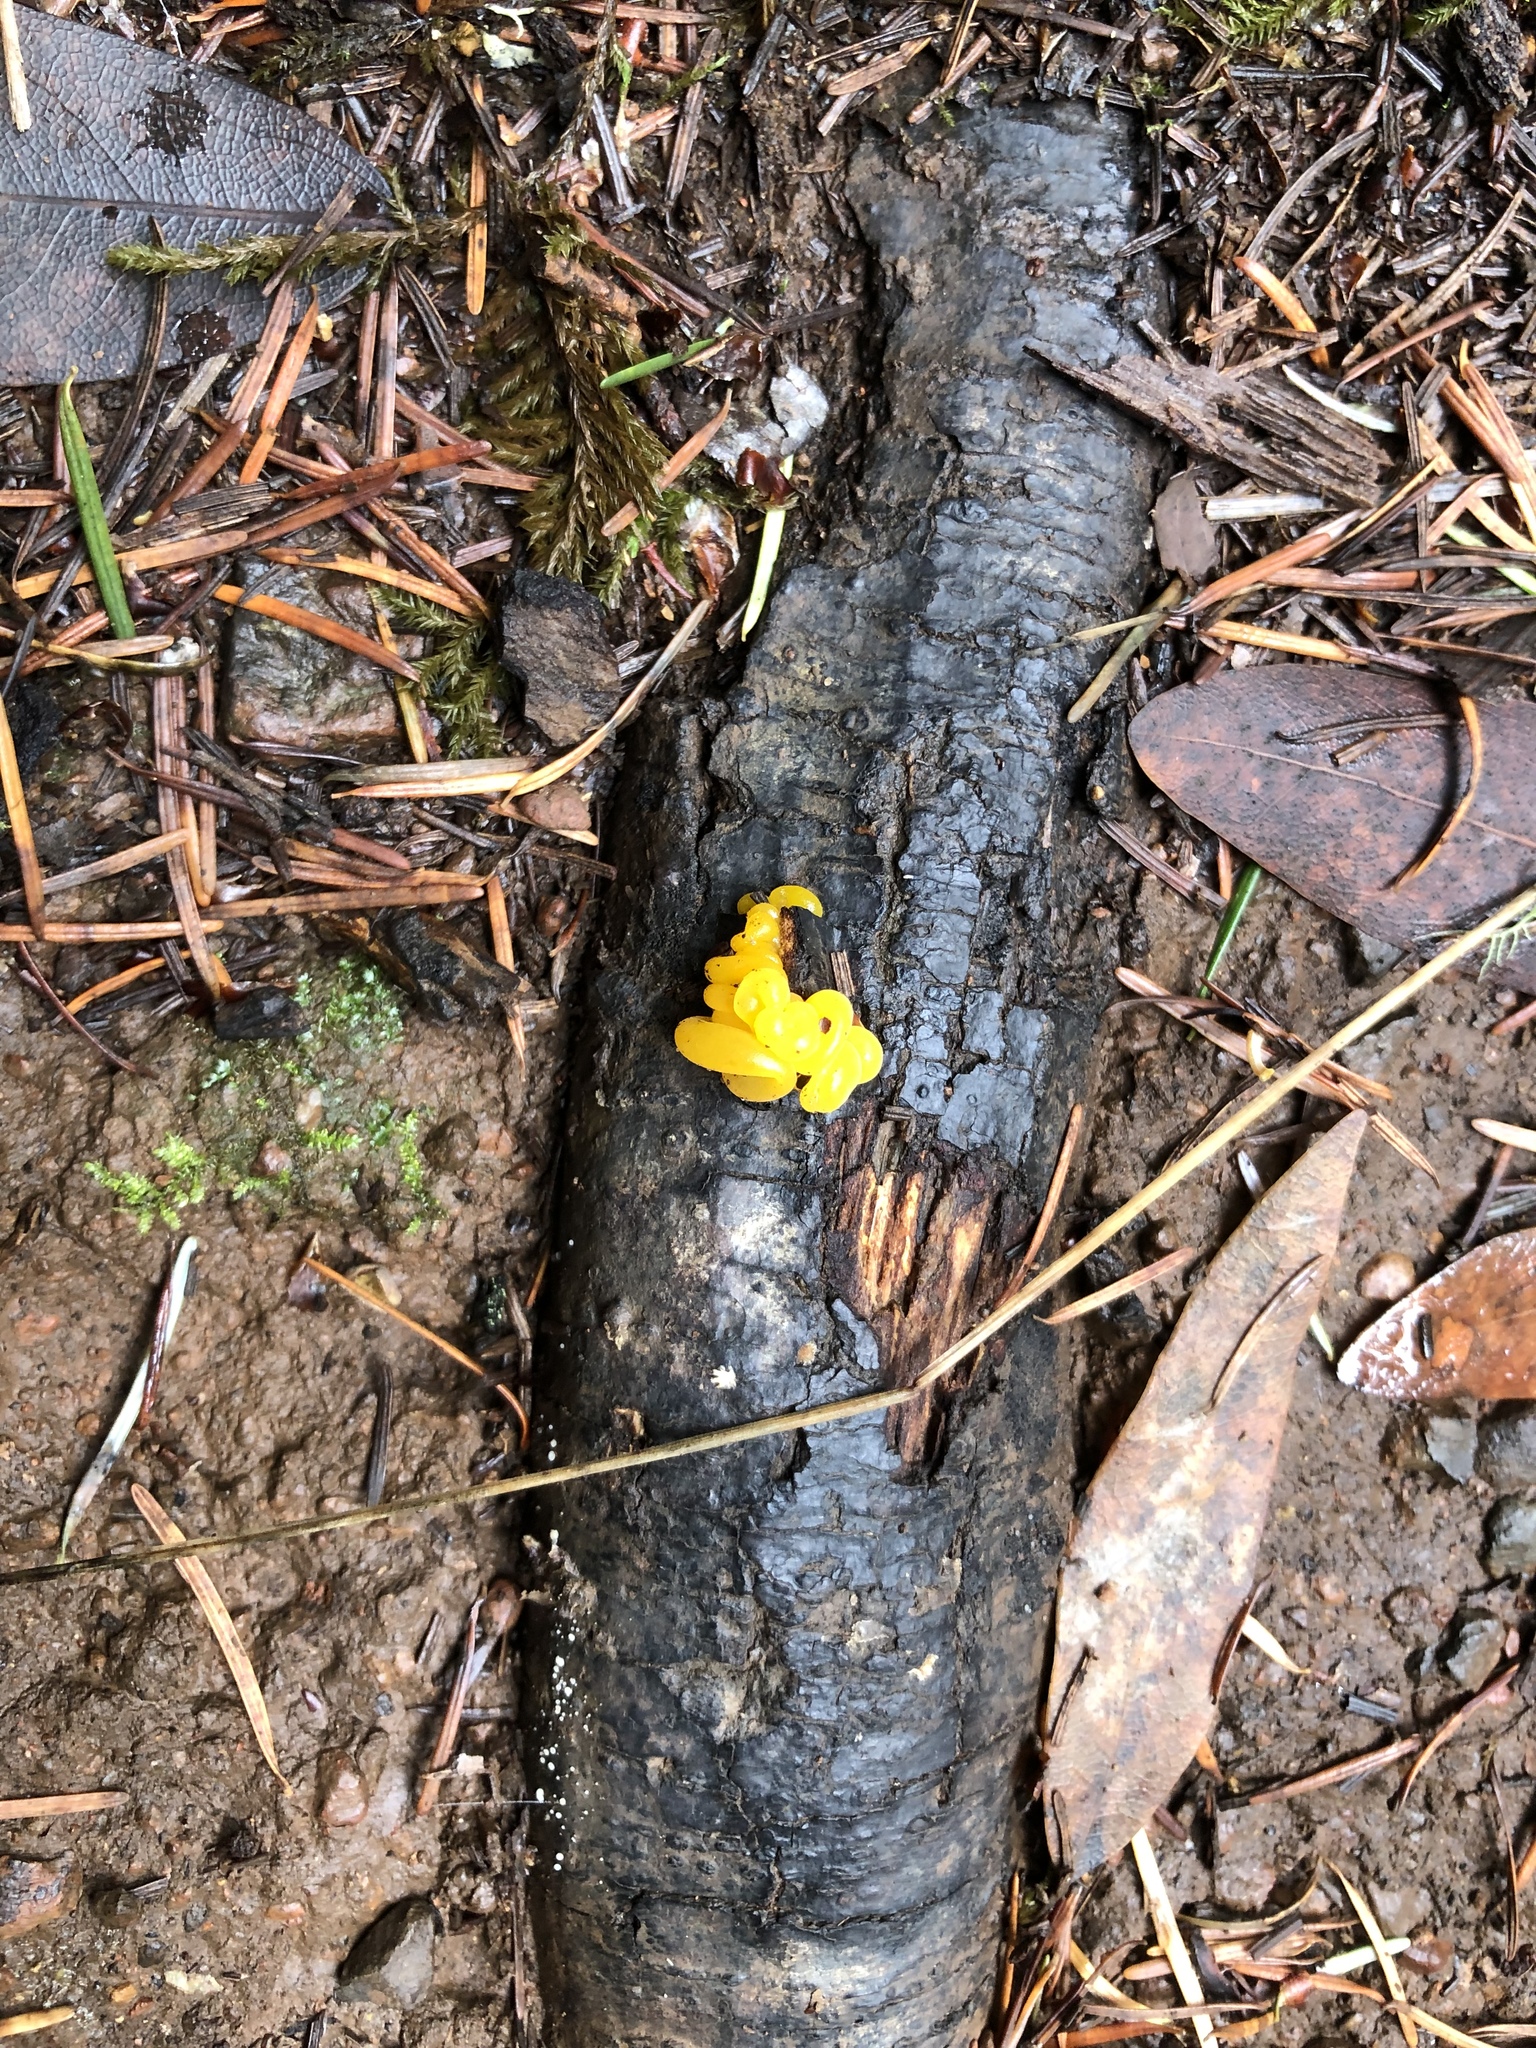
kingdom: Fungi
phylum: Basidiomycota
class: Tremellomycetes
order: Tremellales
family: Naemateliaceae
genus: Naematelia
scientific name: Naematelia aurantia
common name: Golden ear
